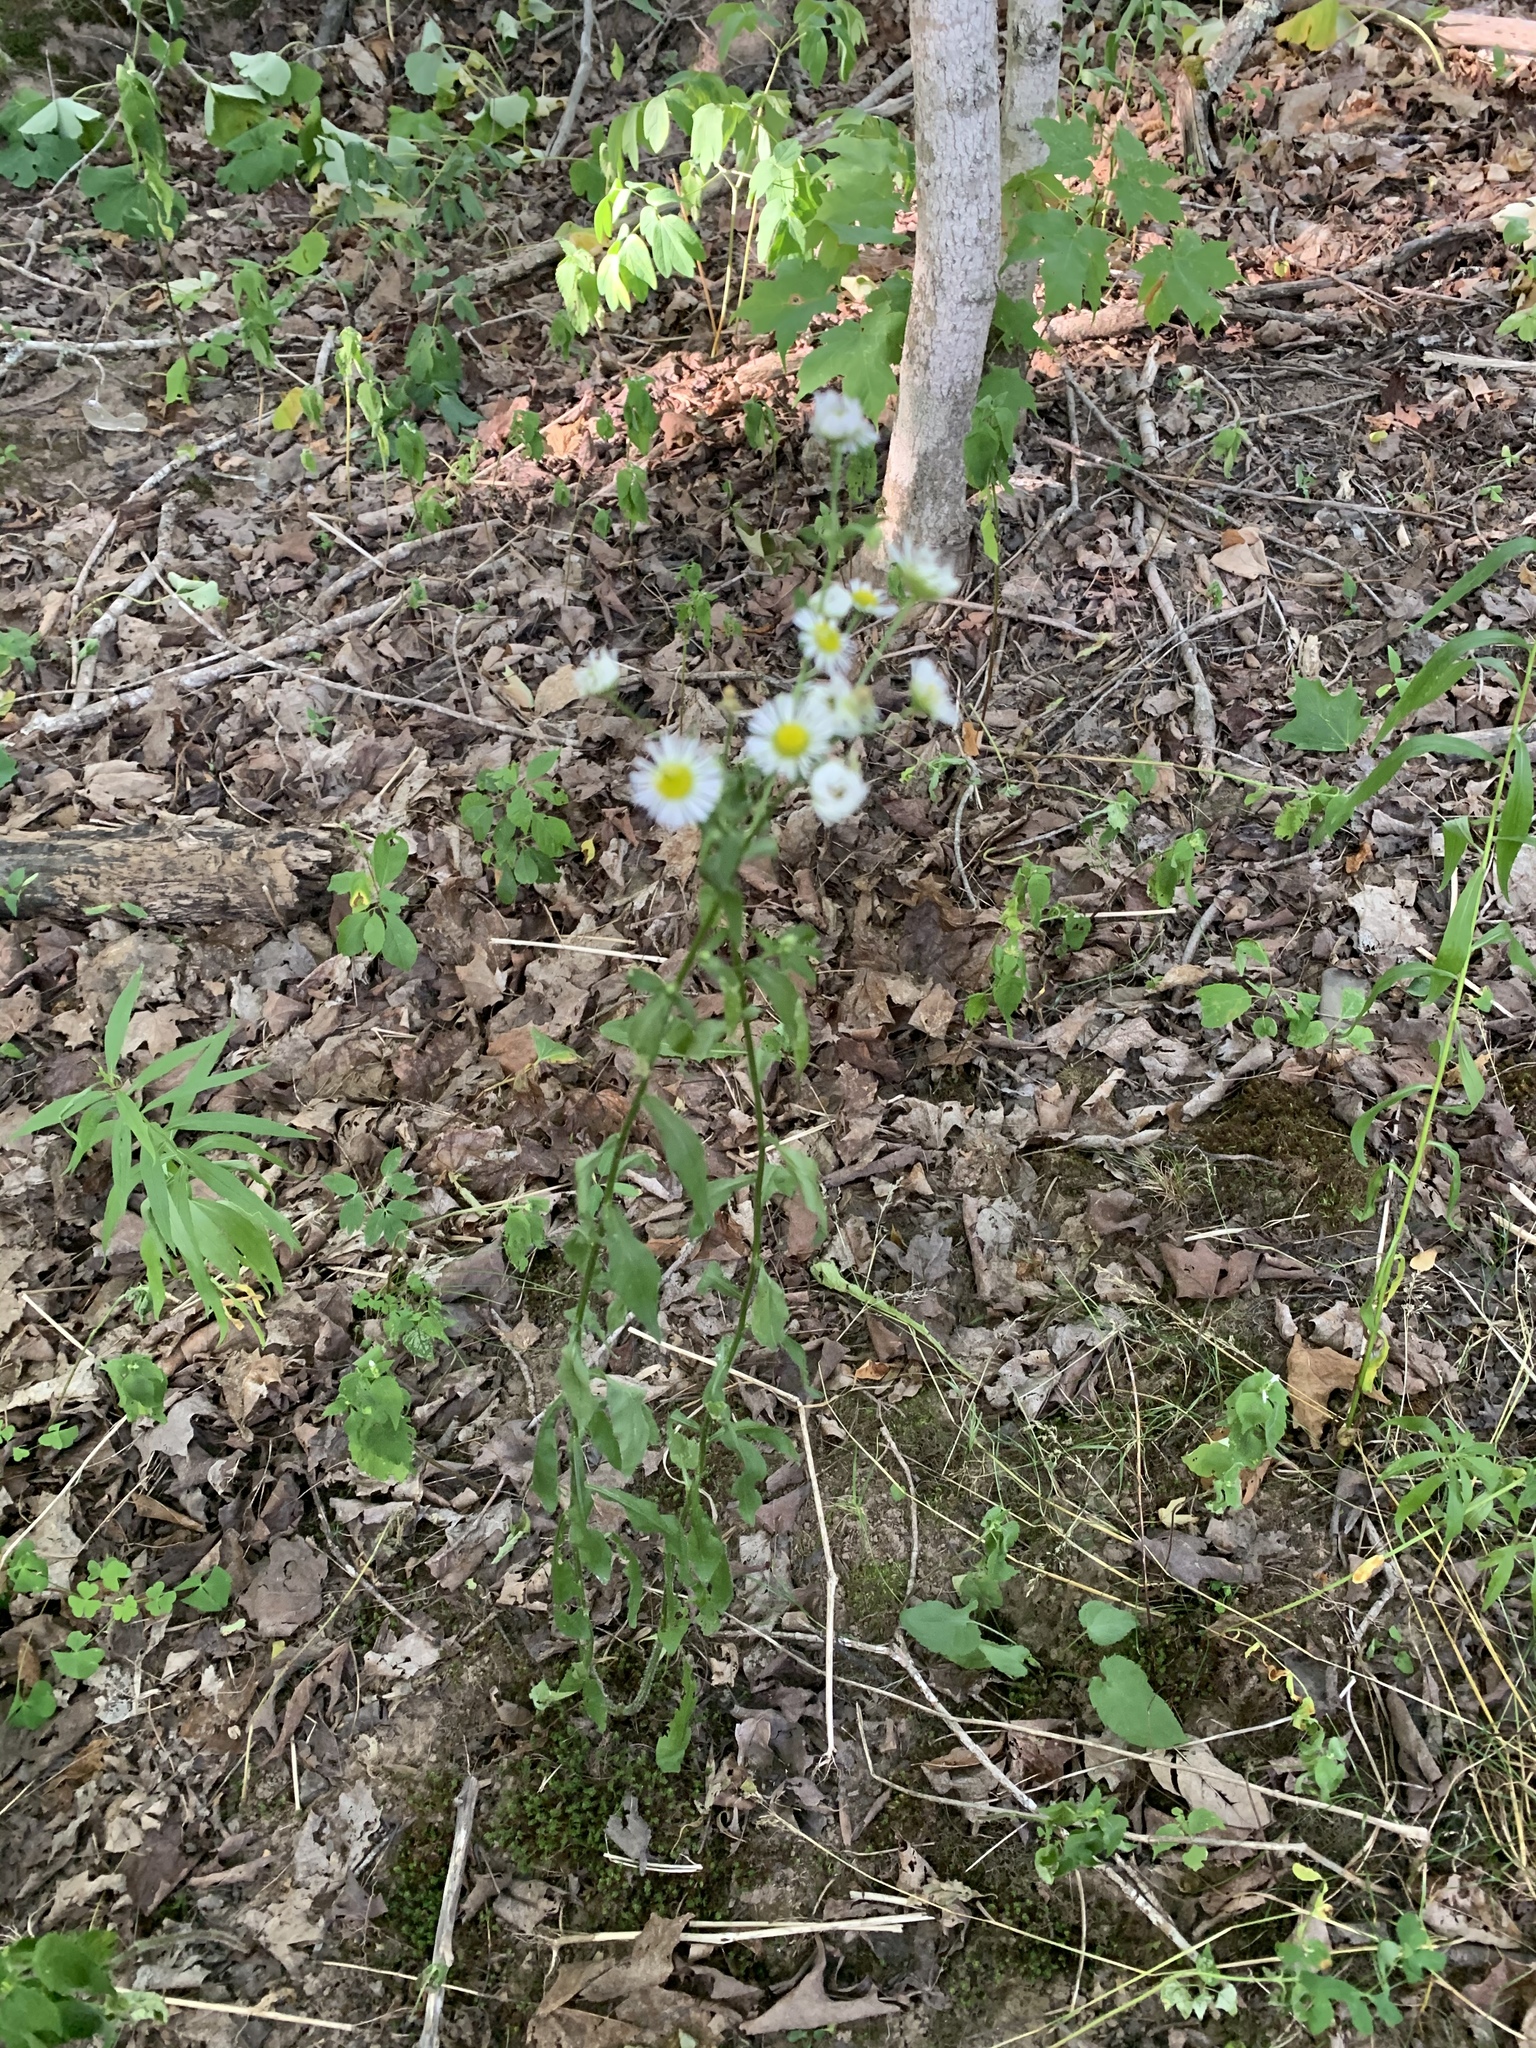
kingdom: Plantae
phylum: Tracheophyta
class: Magnoliopsida
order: Asterales
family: Asteraceae
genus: Erigeron
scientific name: Erigeron strigosus
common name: Common eastern fleabane
